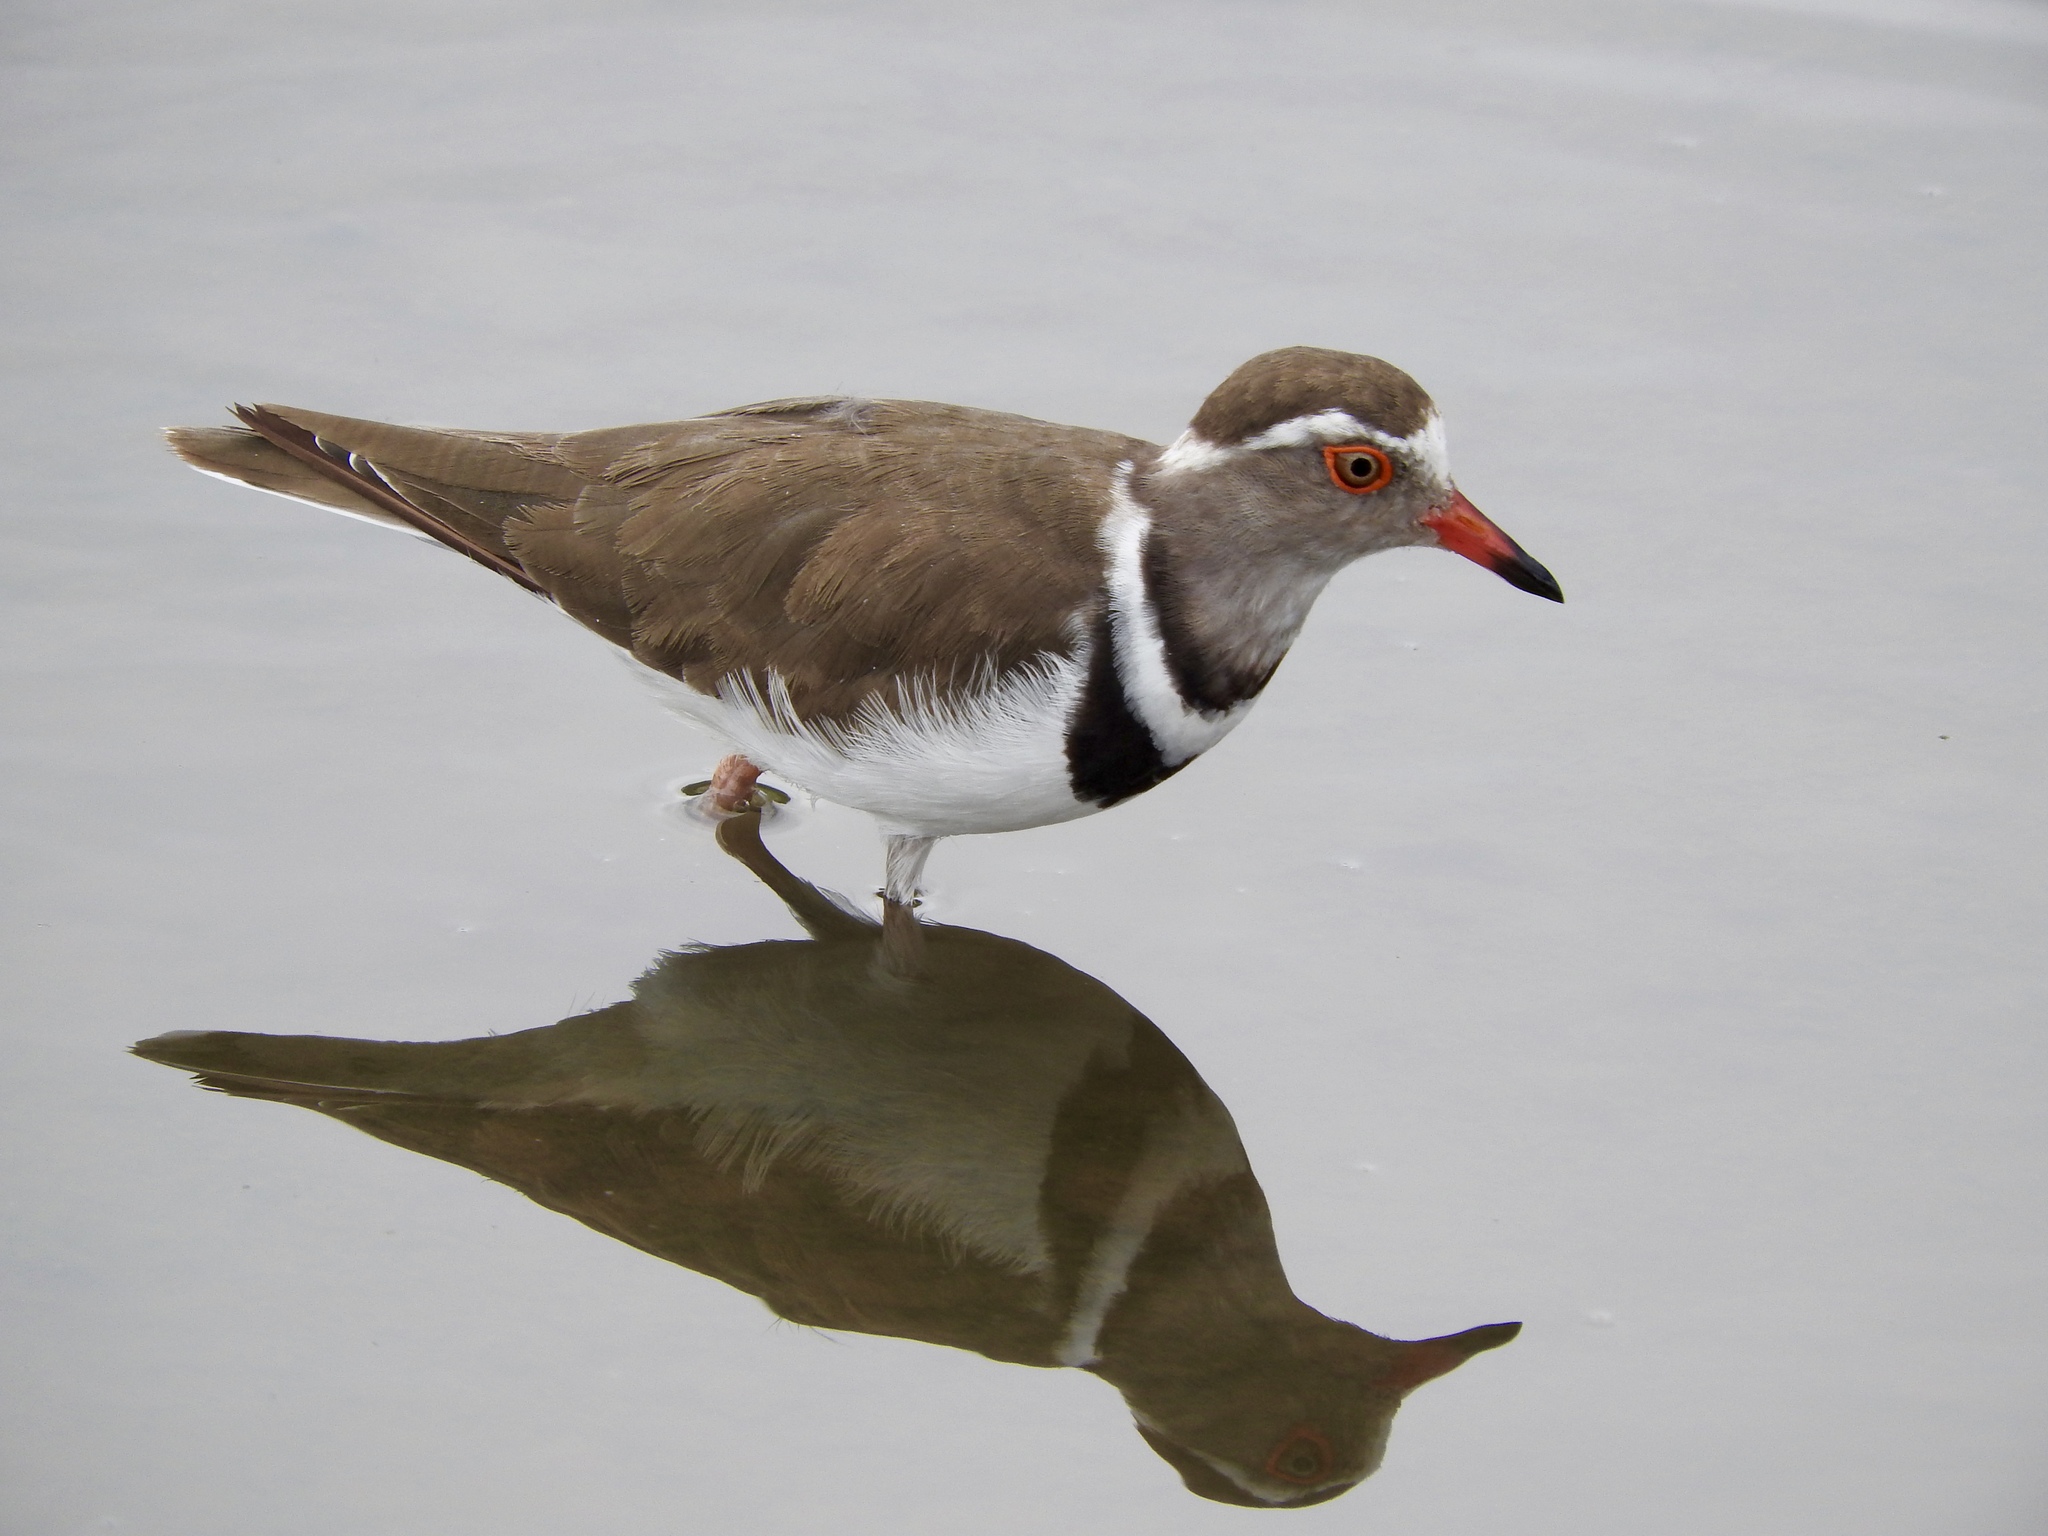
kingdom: Animalia
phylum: Chordata
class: Aves
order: Charadriiformes
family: Charadriidae
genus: Charadrius
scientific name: Charadrius tricollaris
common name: Three-banded plover
